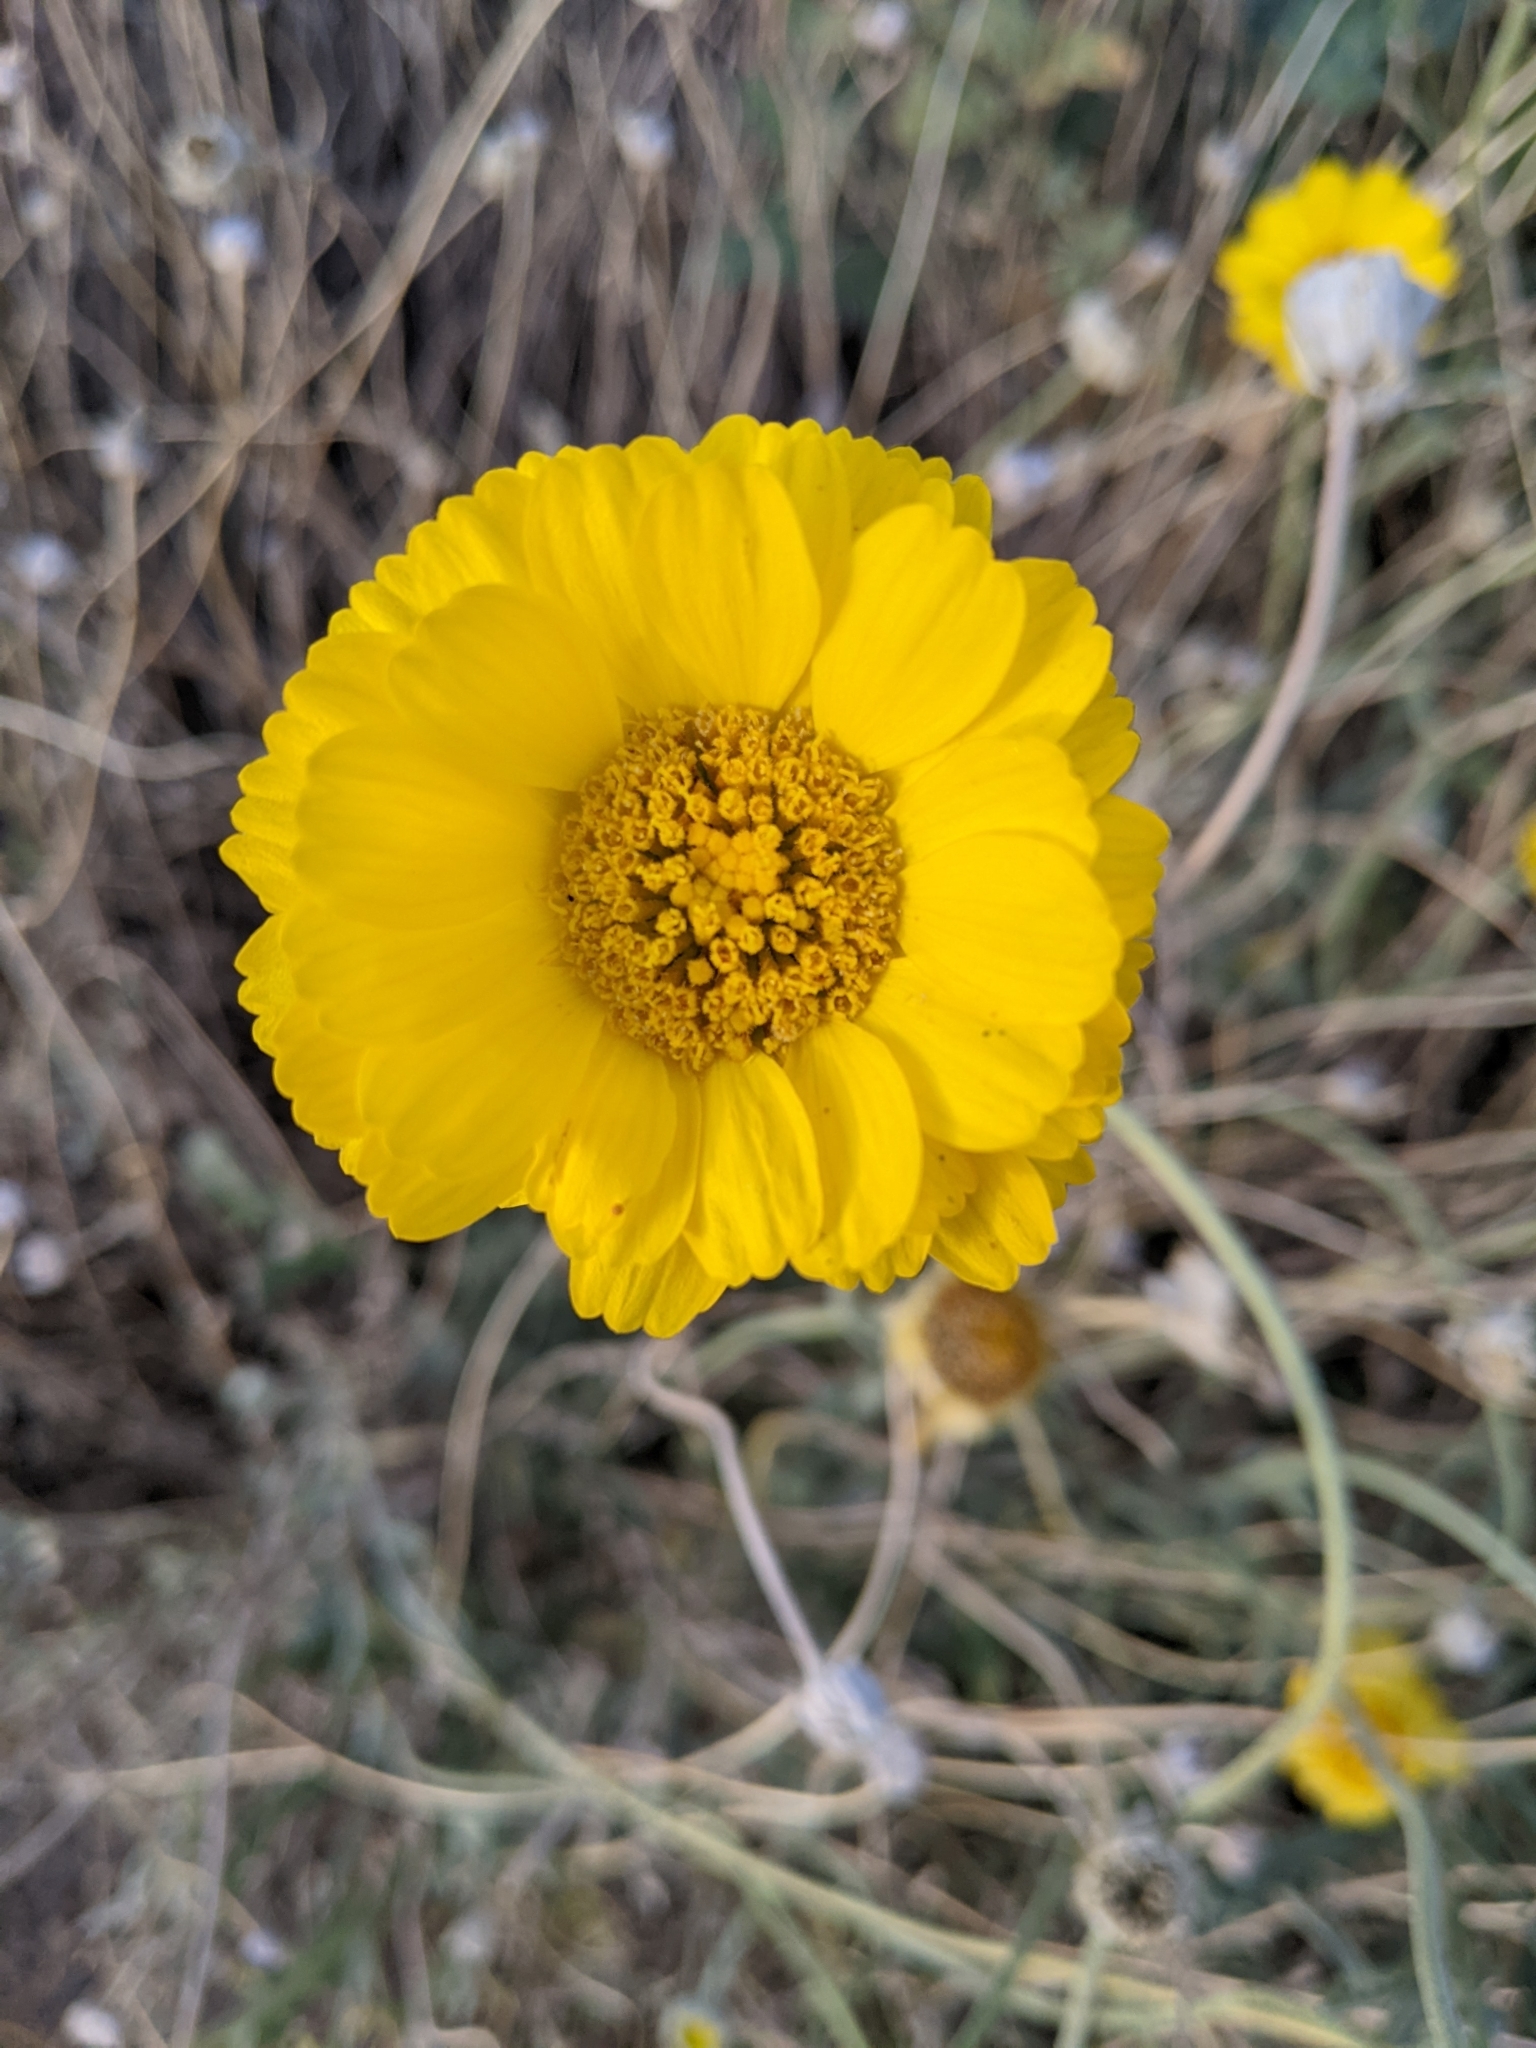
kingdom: Plantae
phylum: Tracheophyta
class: Magnoliopsida
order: Asterales
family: Asteraceae
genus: Baileya
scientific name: Baileya multiradiata
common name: Desert-marigold
